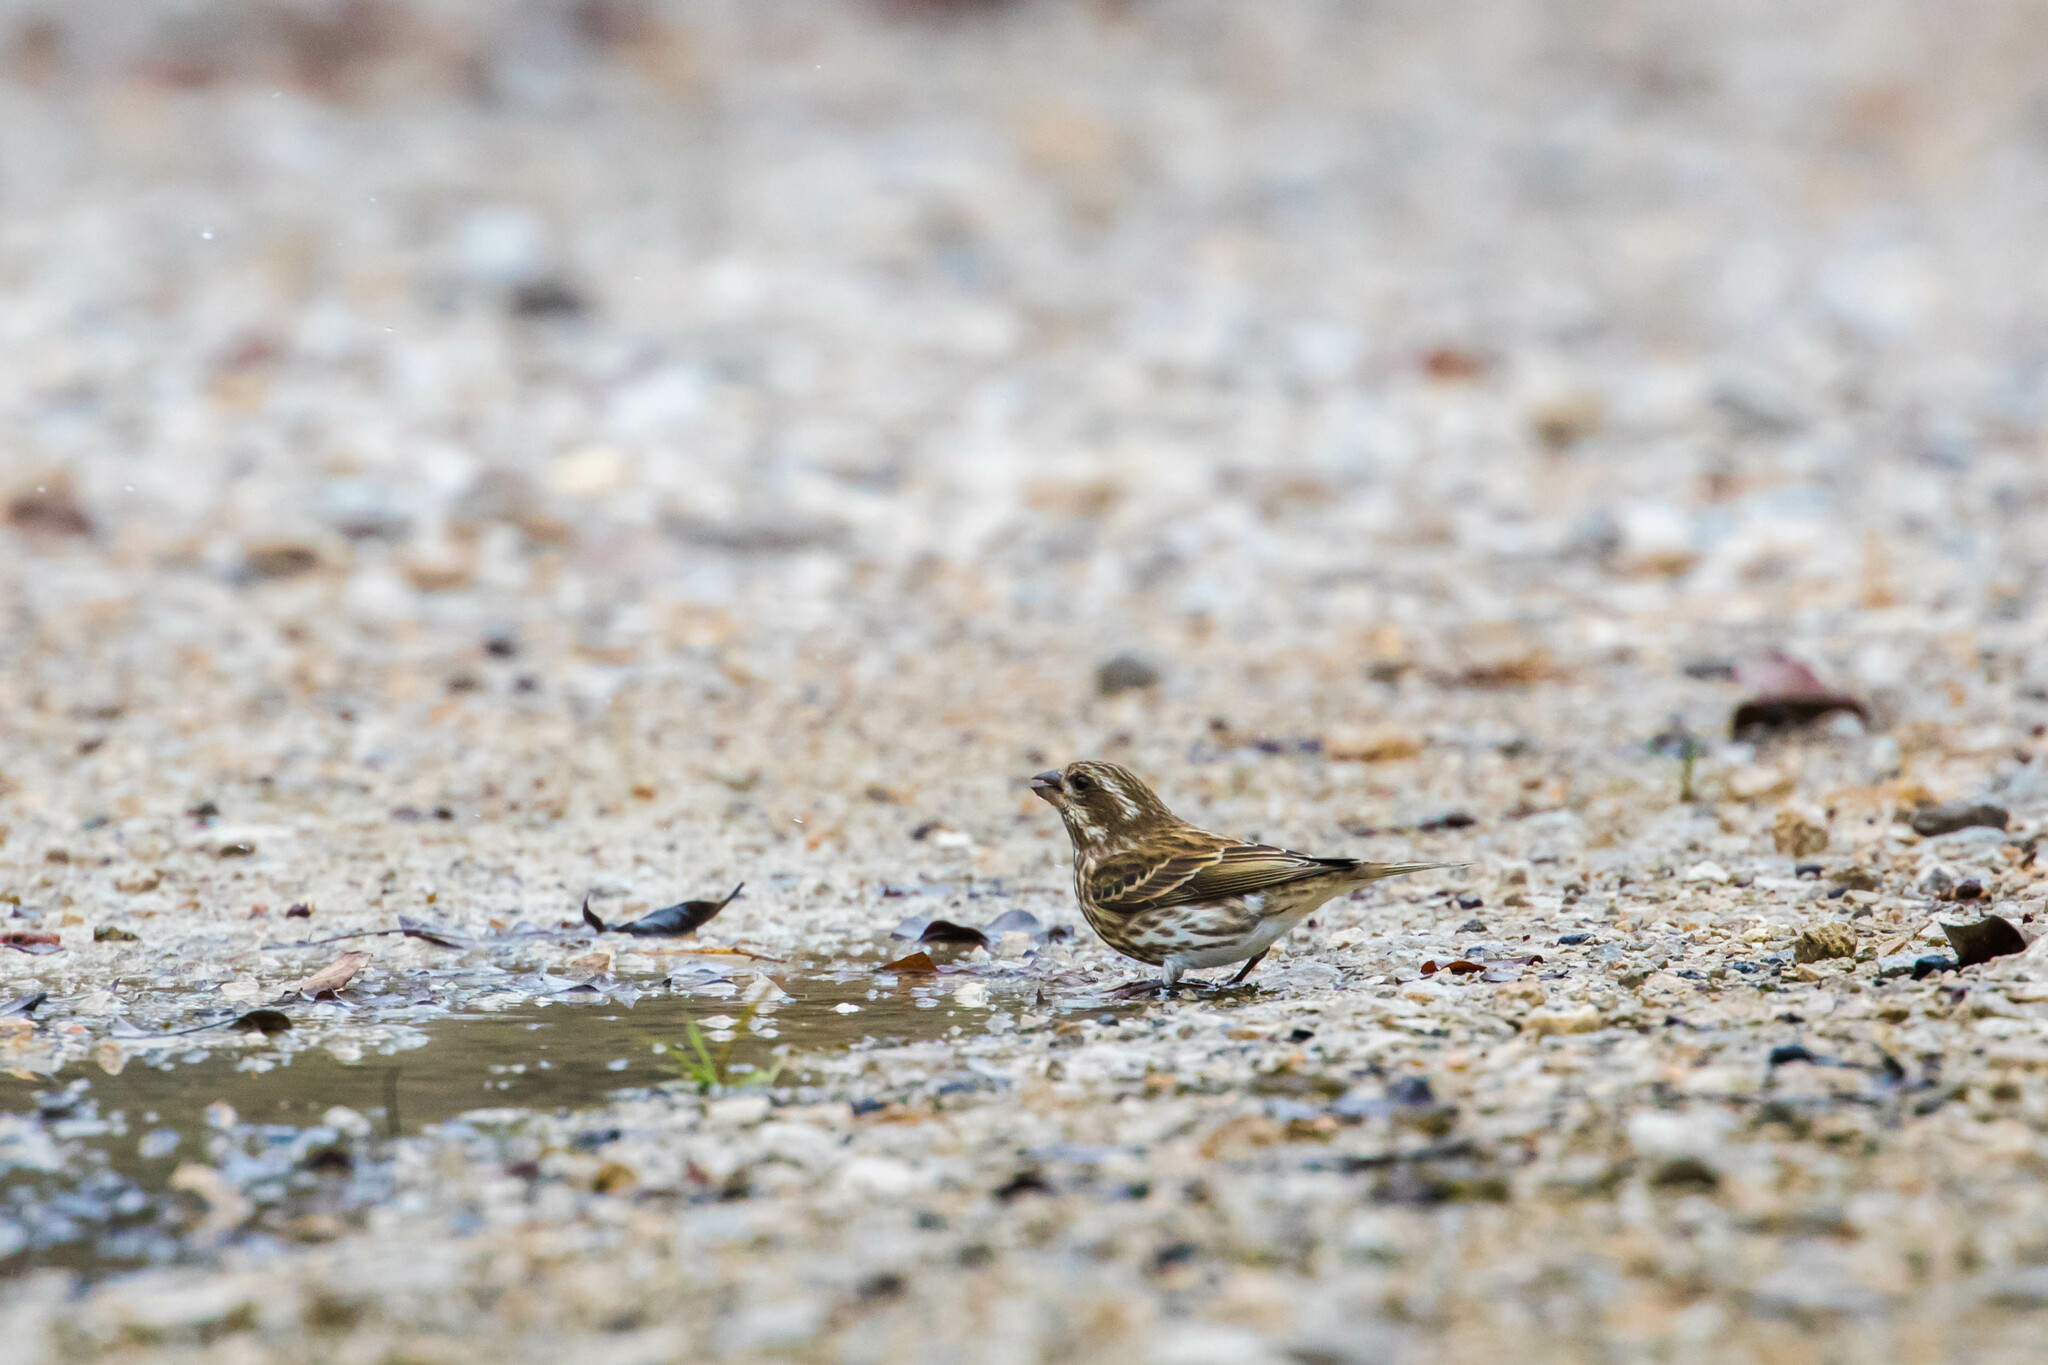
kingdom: Animalia
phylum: Chordata
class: Aves
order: Passeriformes
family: Fringillidae
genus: Haemorhous
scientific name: Haemorhous purpureus
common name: Purple finch
